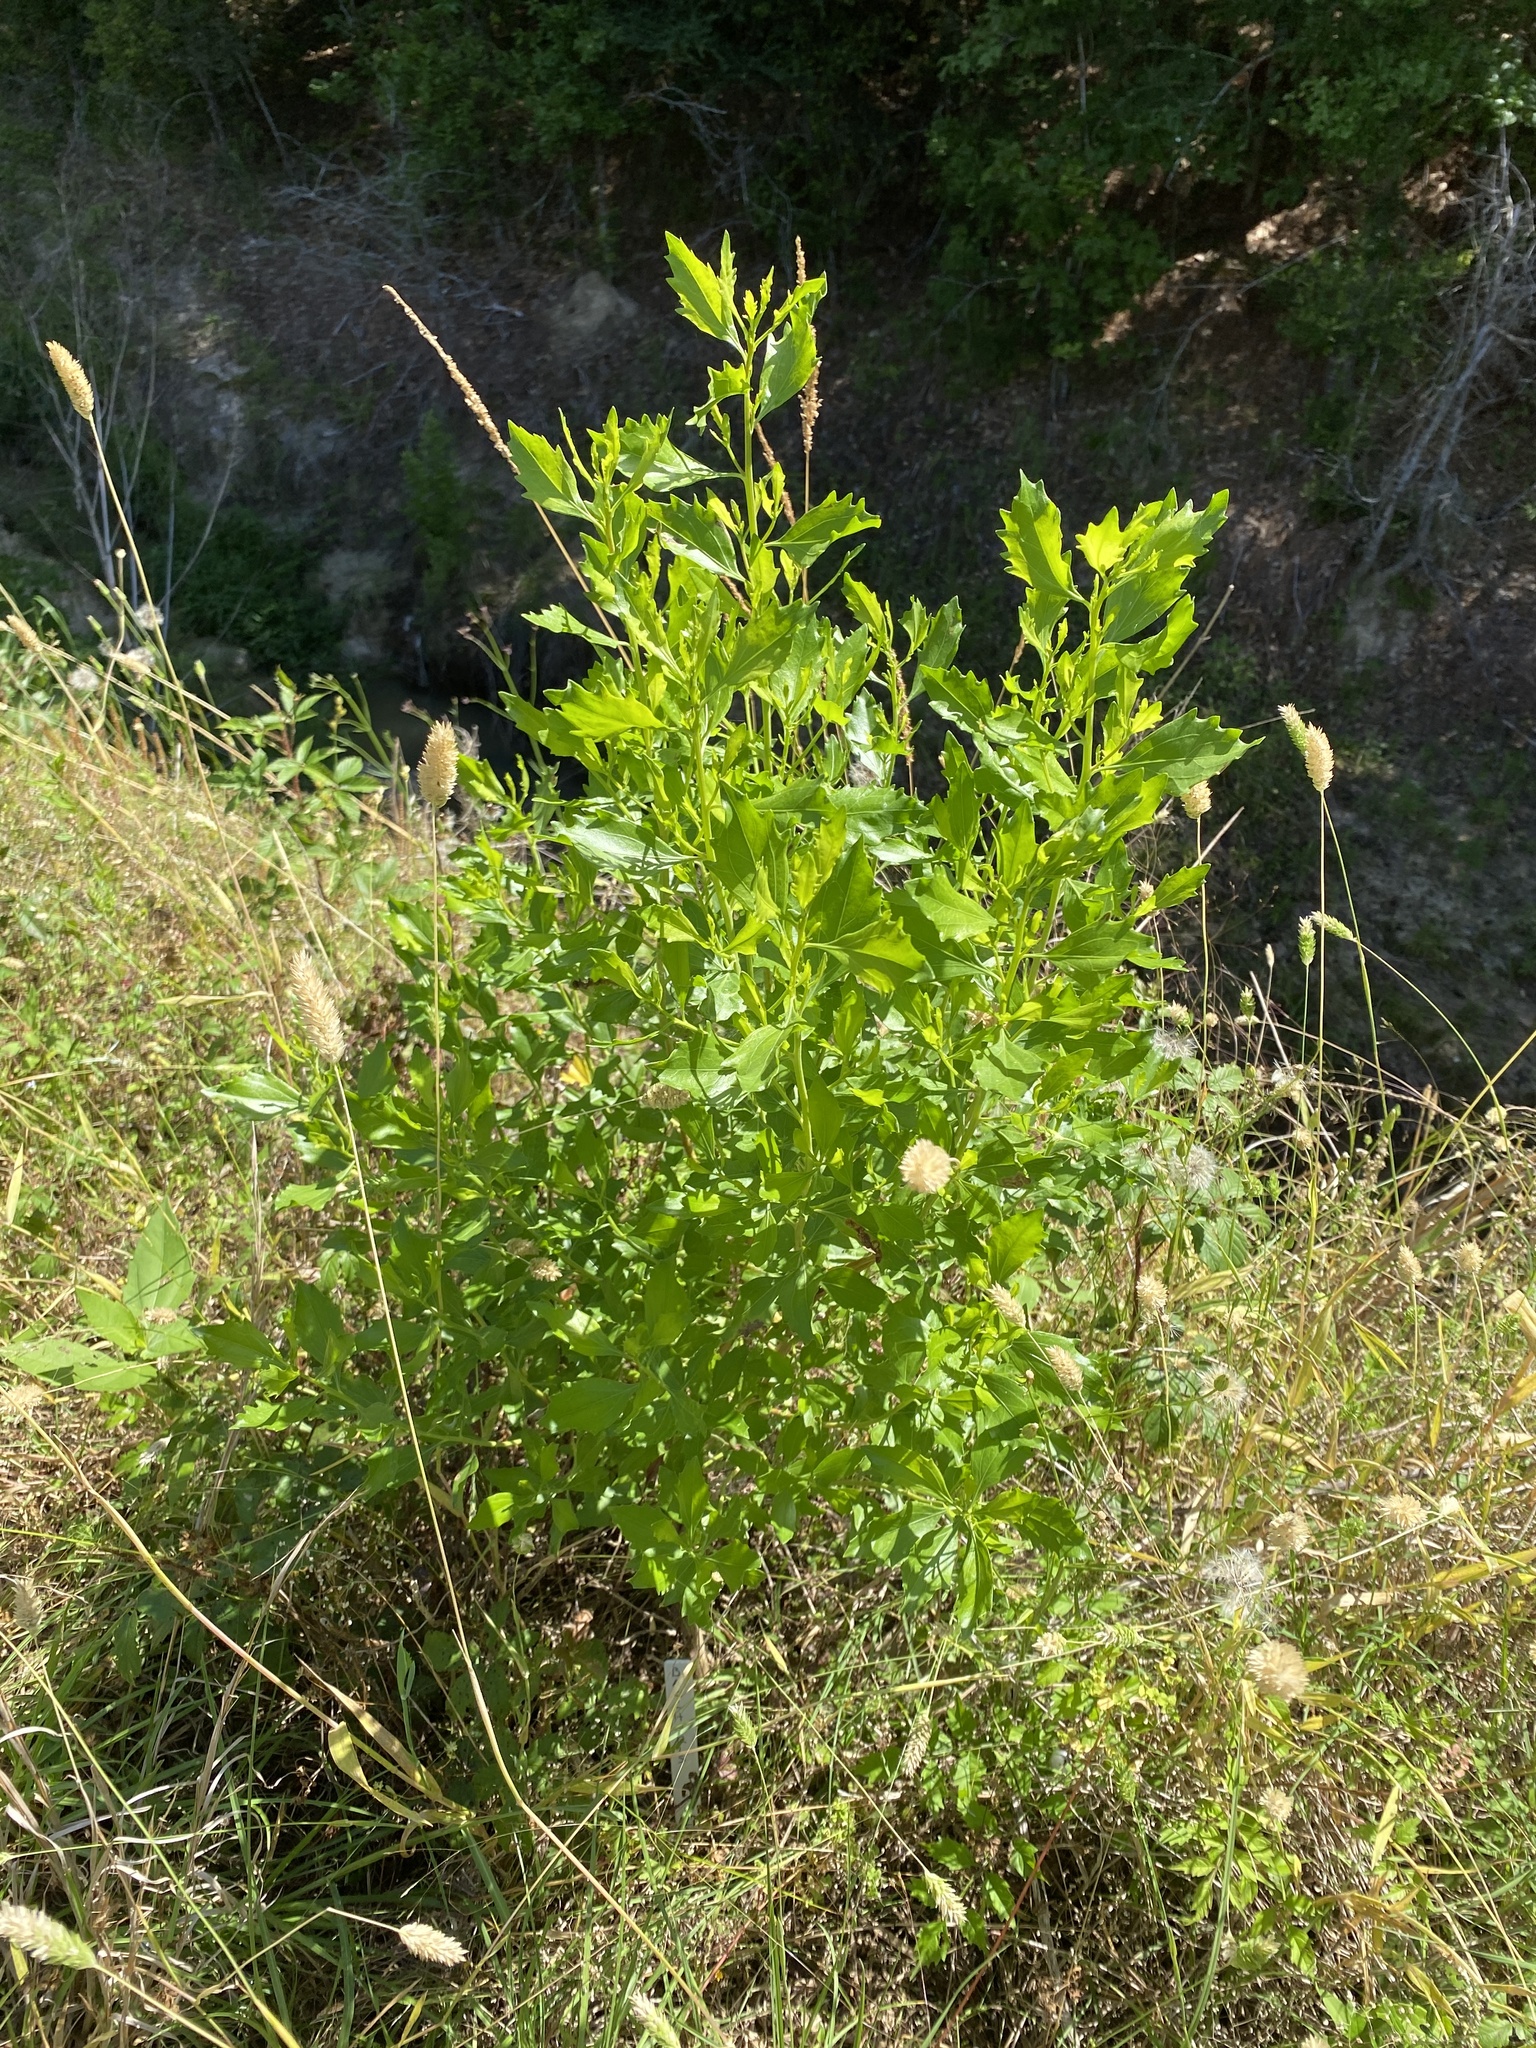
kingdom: Plantae
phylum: Tracheophyta
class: Magnoliopsida
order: Asterales
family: Asteraceae
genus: Baccharis
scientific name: Baccharis halimifolia
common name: Eastern baccharis
